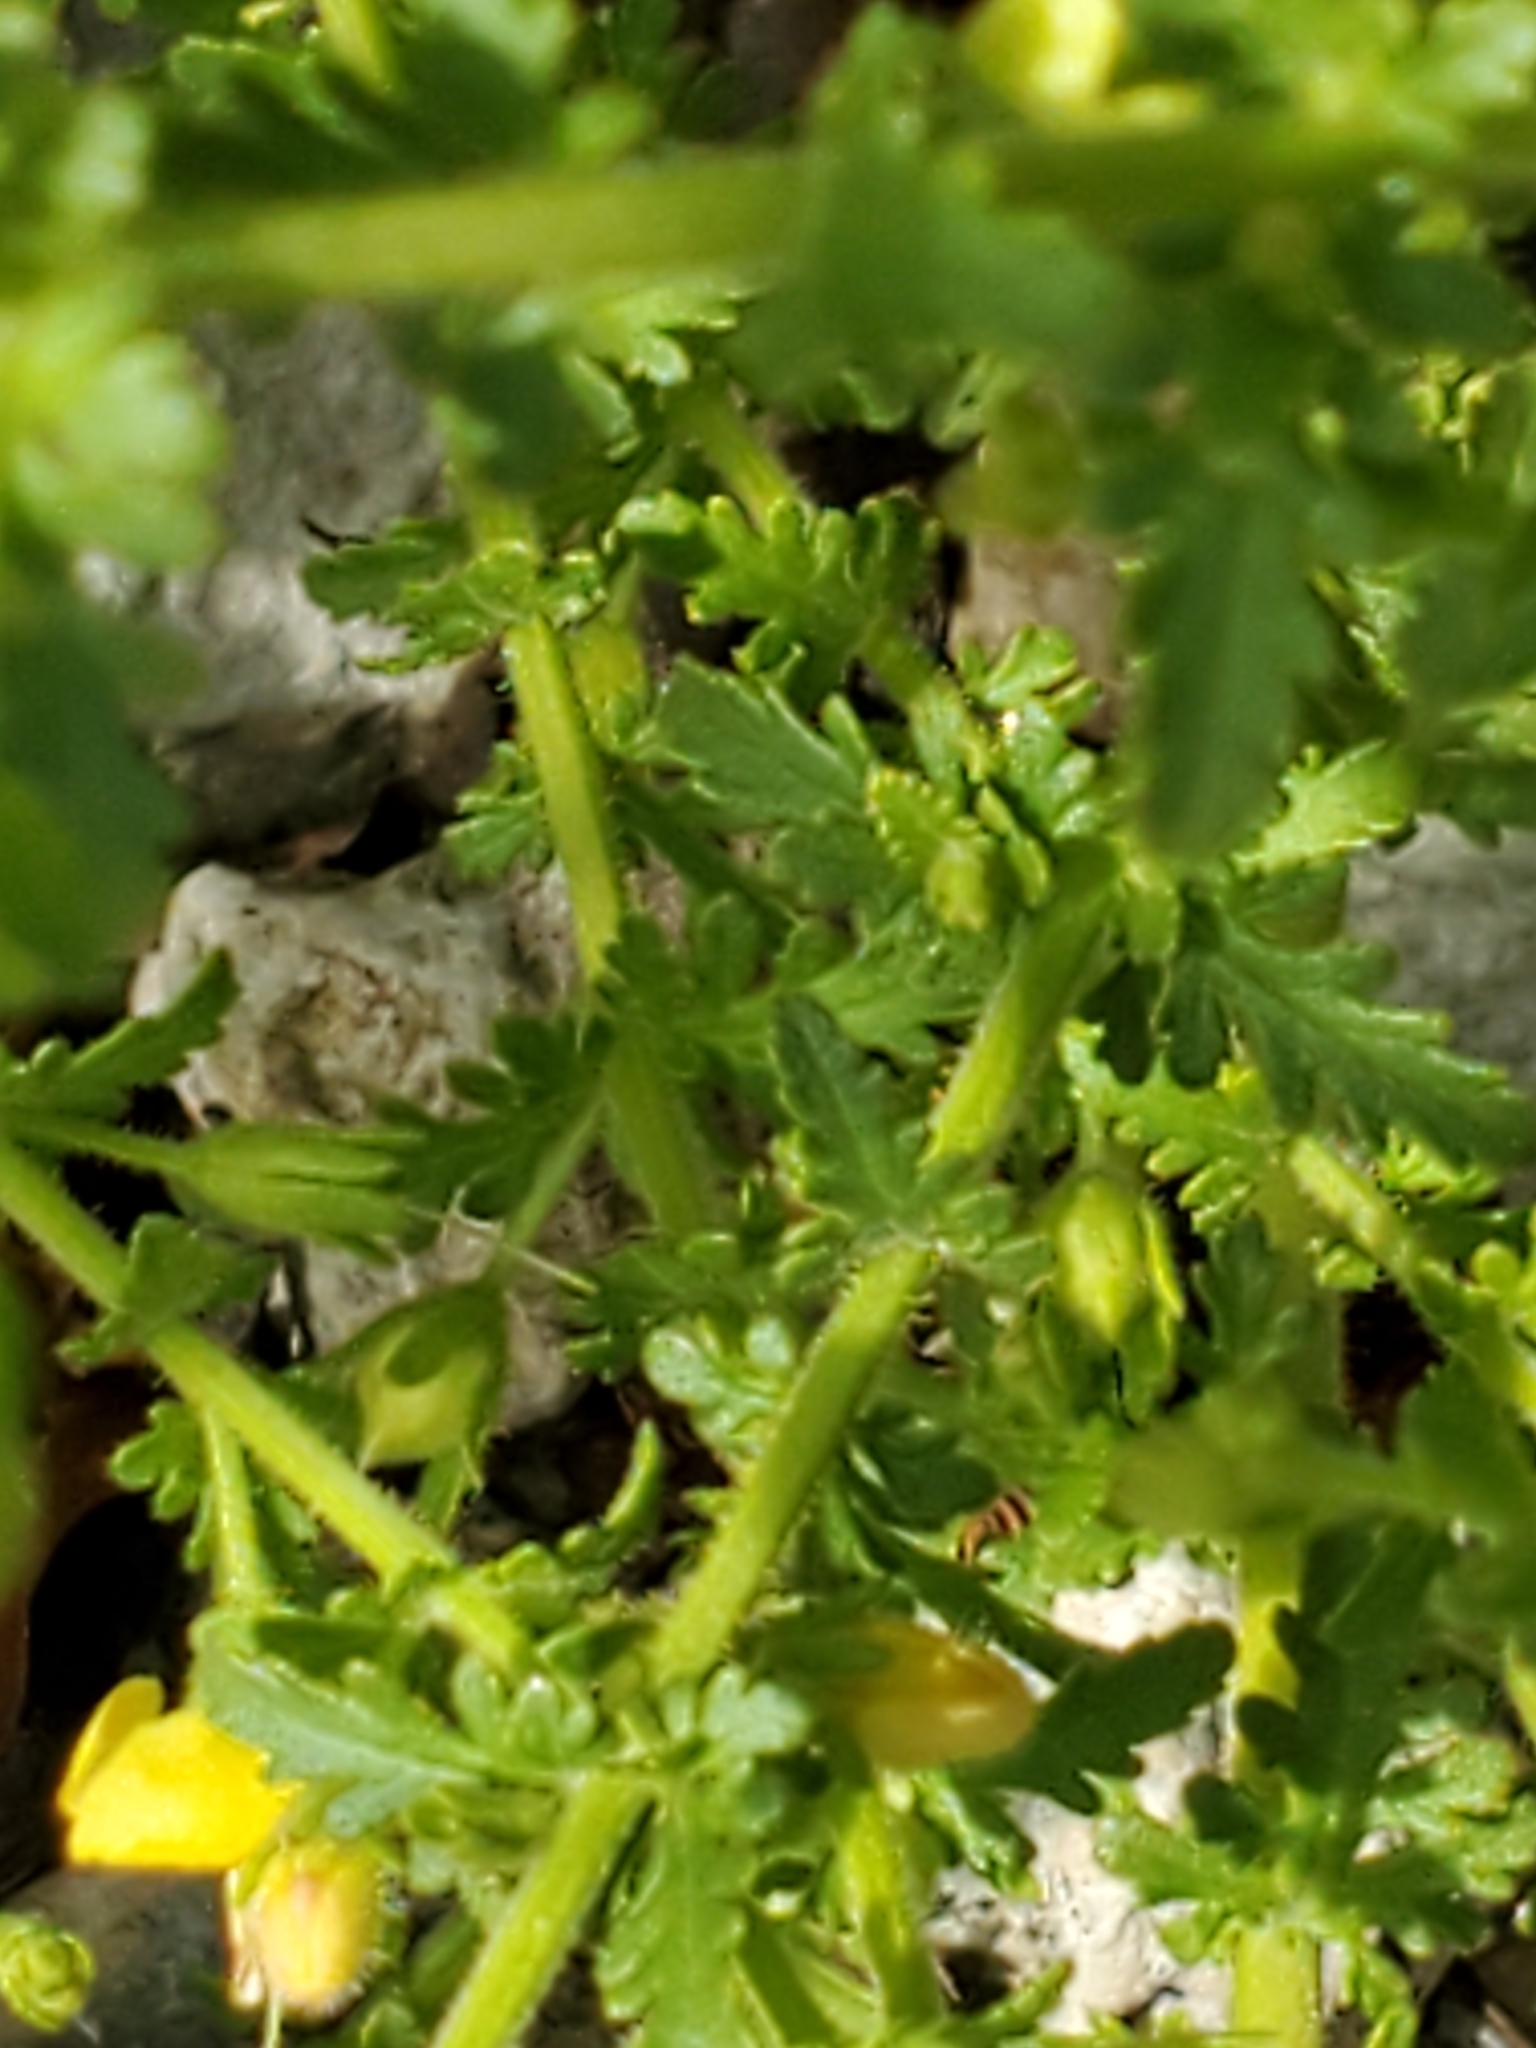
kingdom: Plantae
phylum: Tracheophyta
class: Magnoliopsida
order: Lamiales
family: Orobanchaceae
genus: Seymeria
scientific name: Seymeria bipinnatisecta
